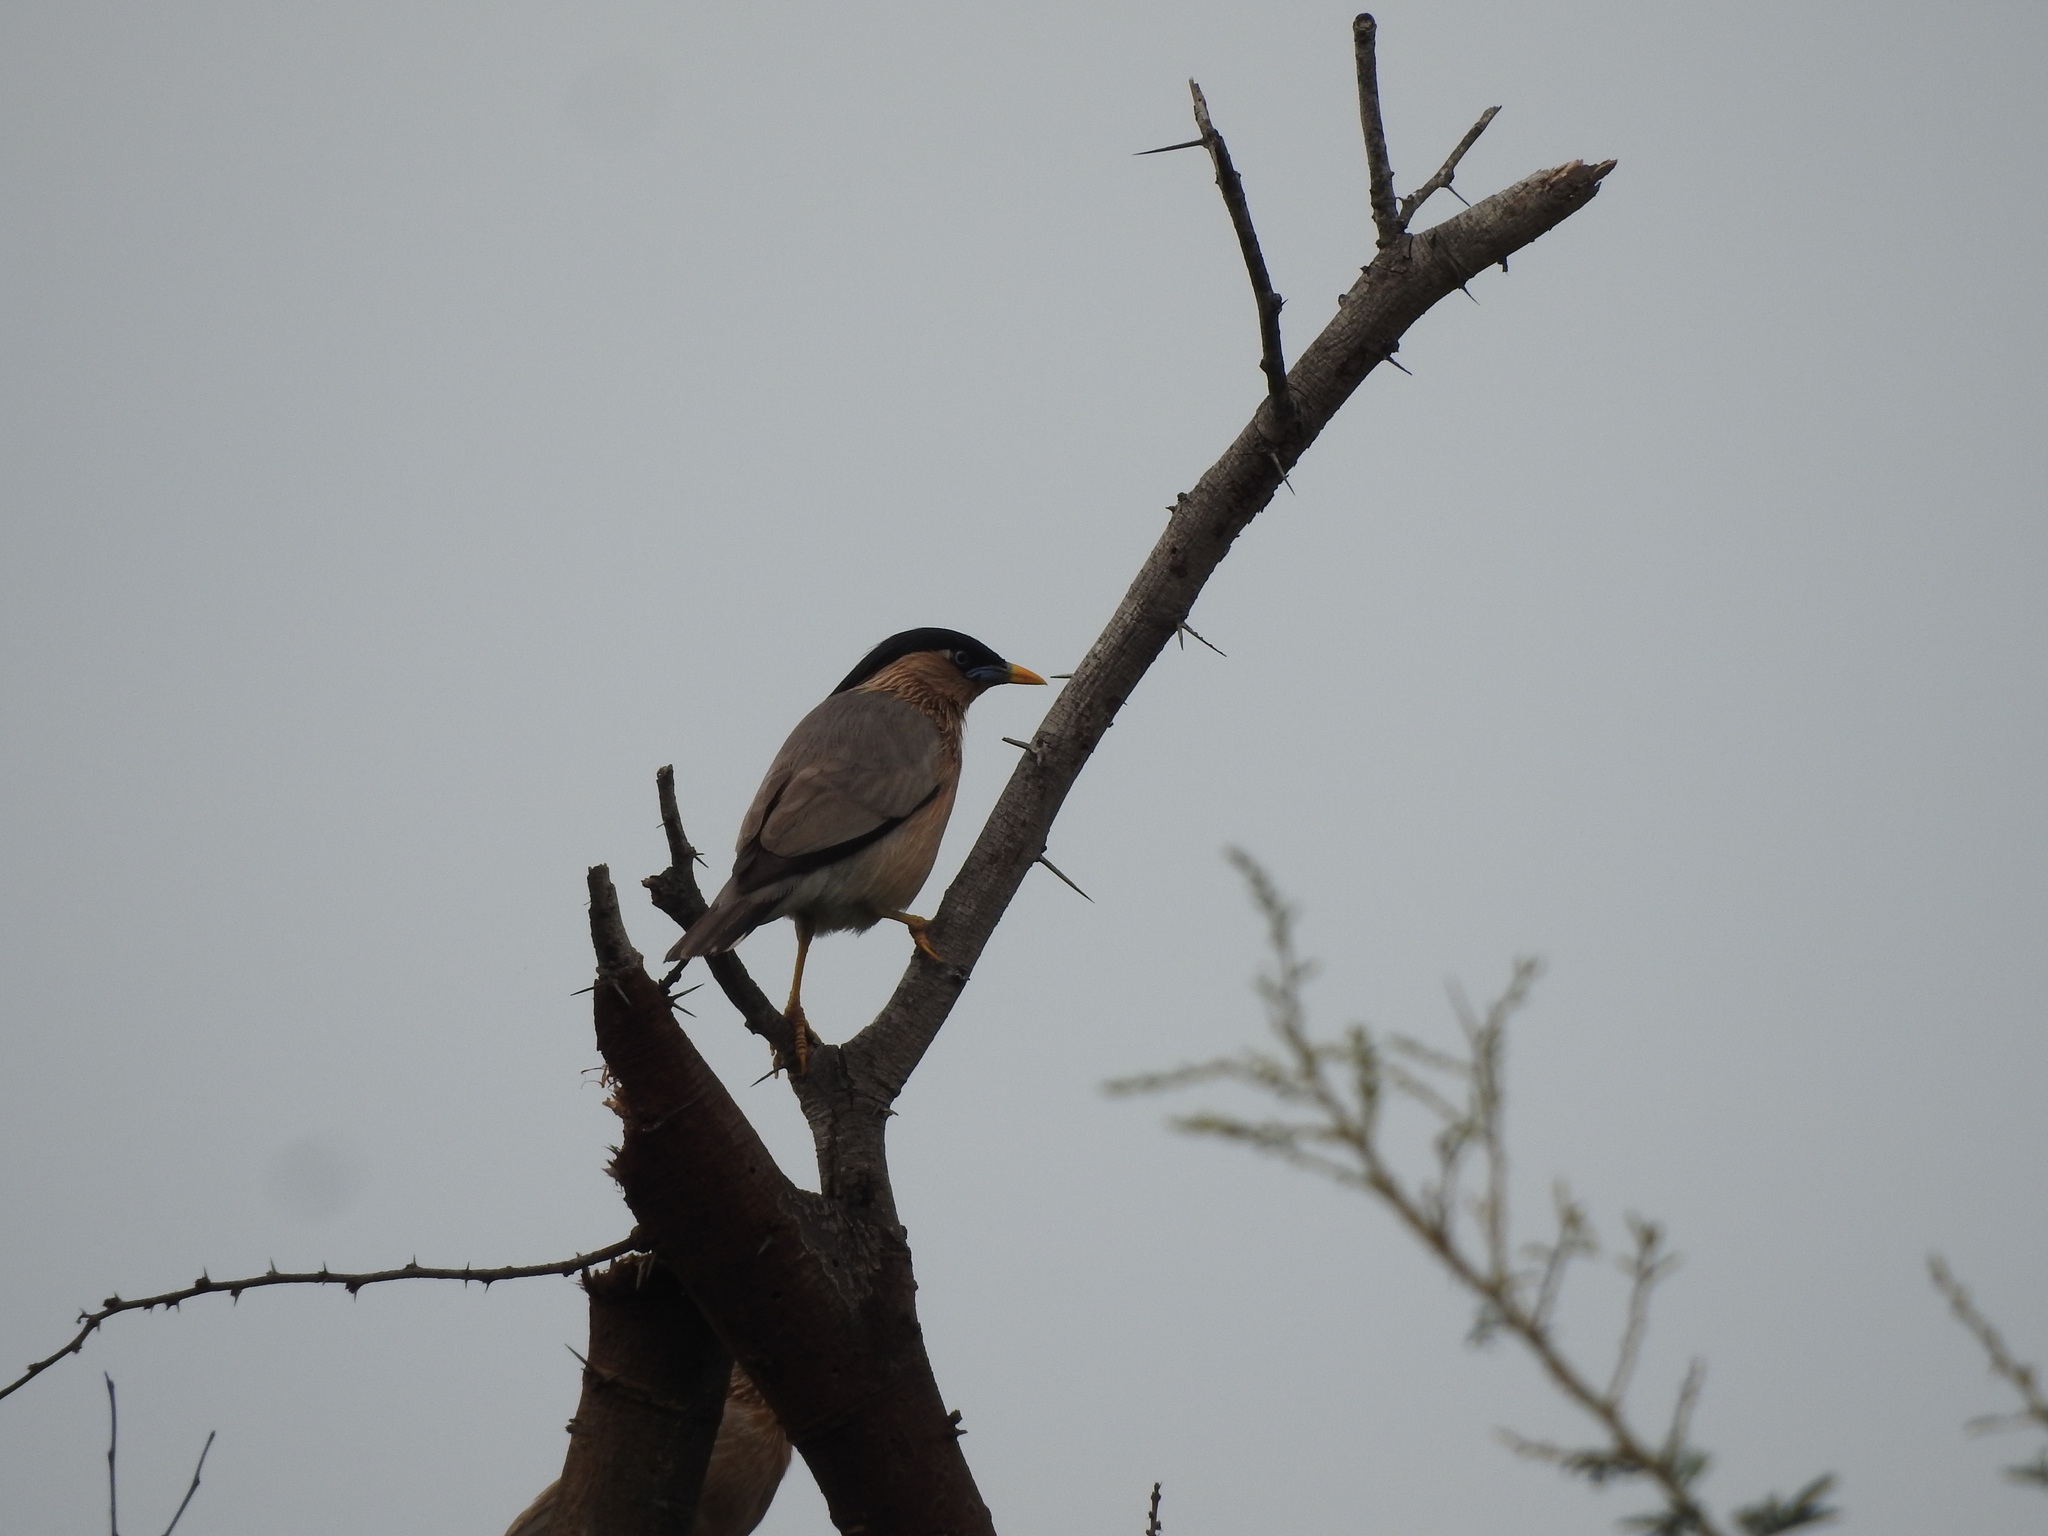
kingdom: Animalia
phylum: Chordata
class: Aves
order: Passeriformes
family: Sturnidae
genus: Sturnia
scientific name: Sturnia pagodarum
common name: Brahminy starling
